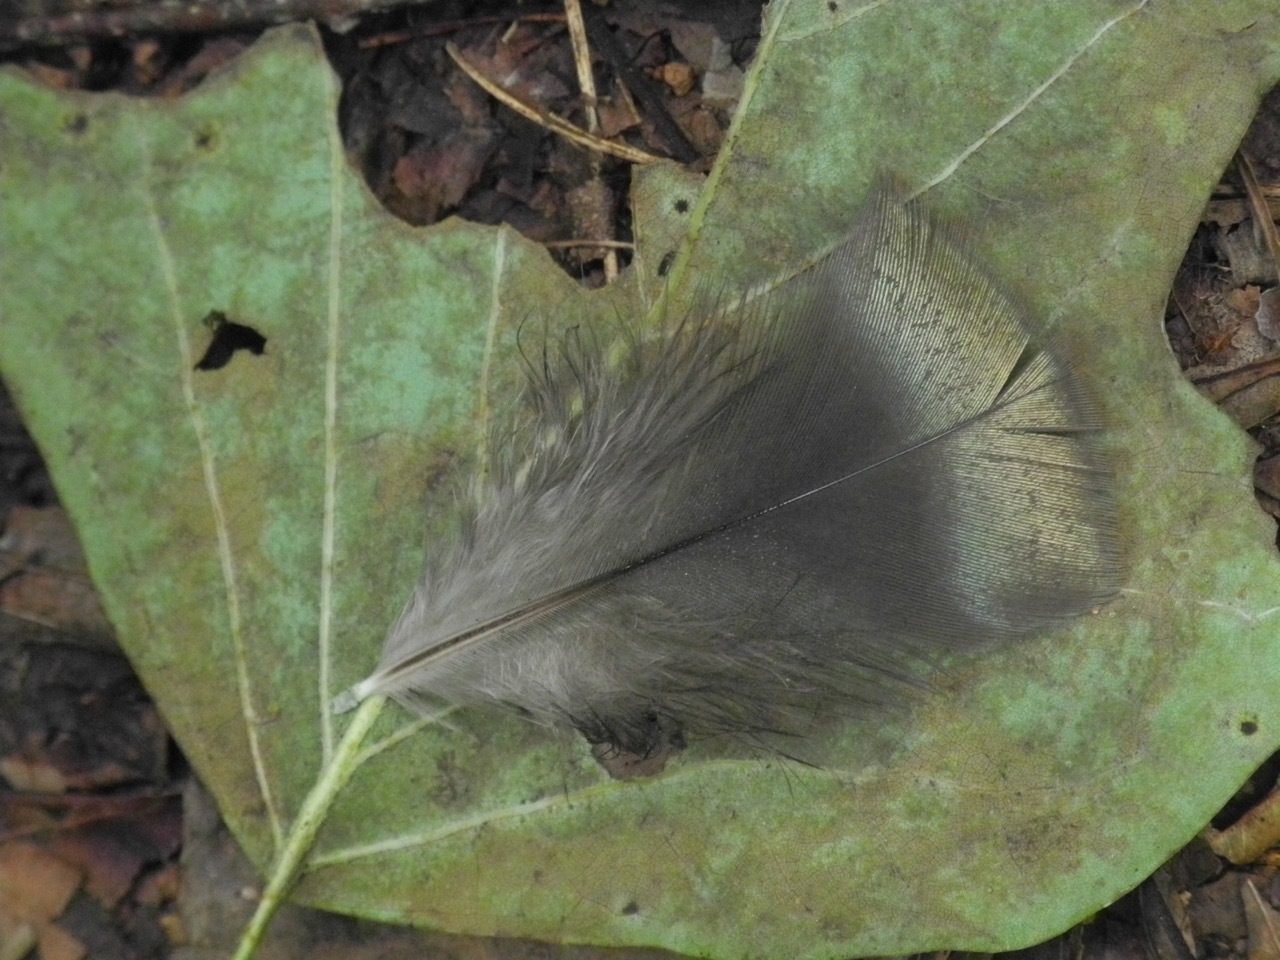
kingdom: Animalia
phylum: Chordata
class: Aves
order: Galliformes
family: Phasianidae
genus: Meleagris
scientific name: Meleagris gallopavo
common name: Wild turkey
